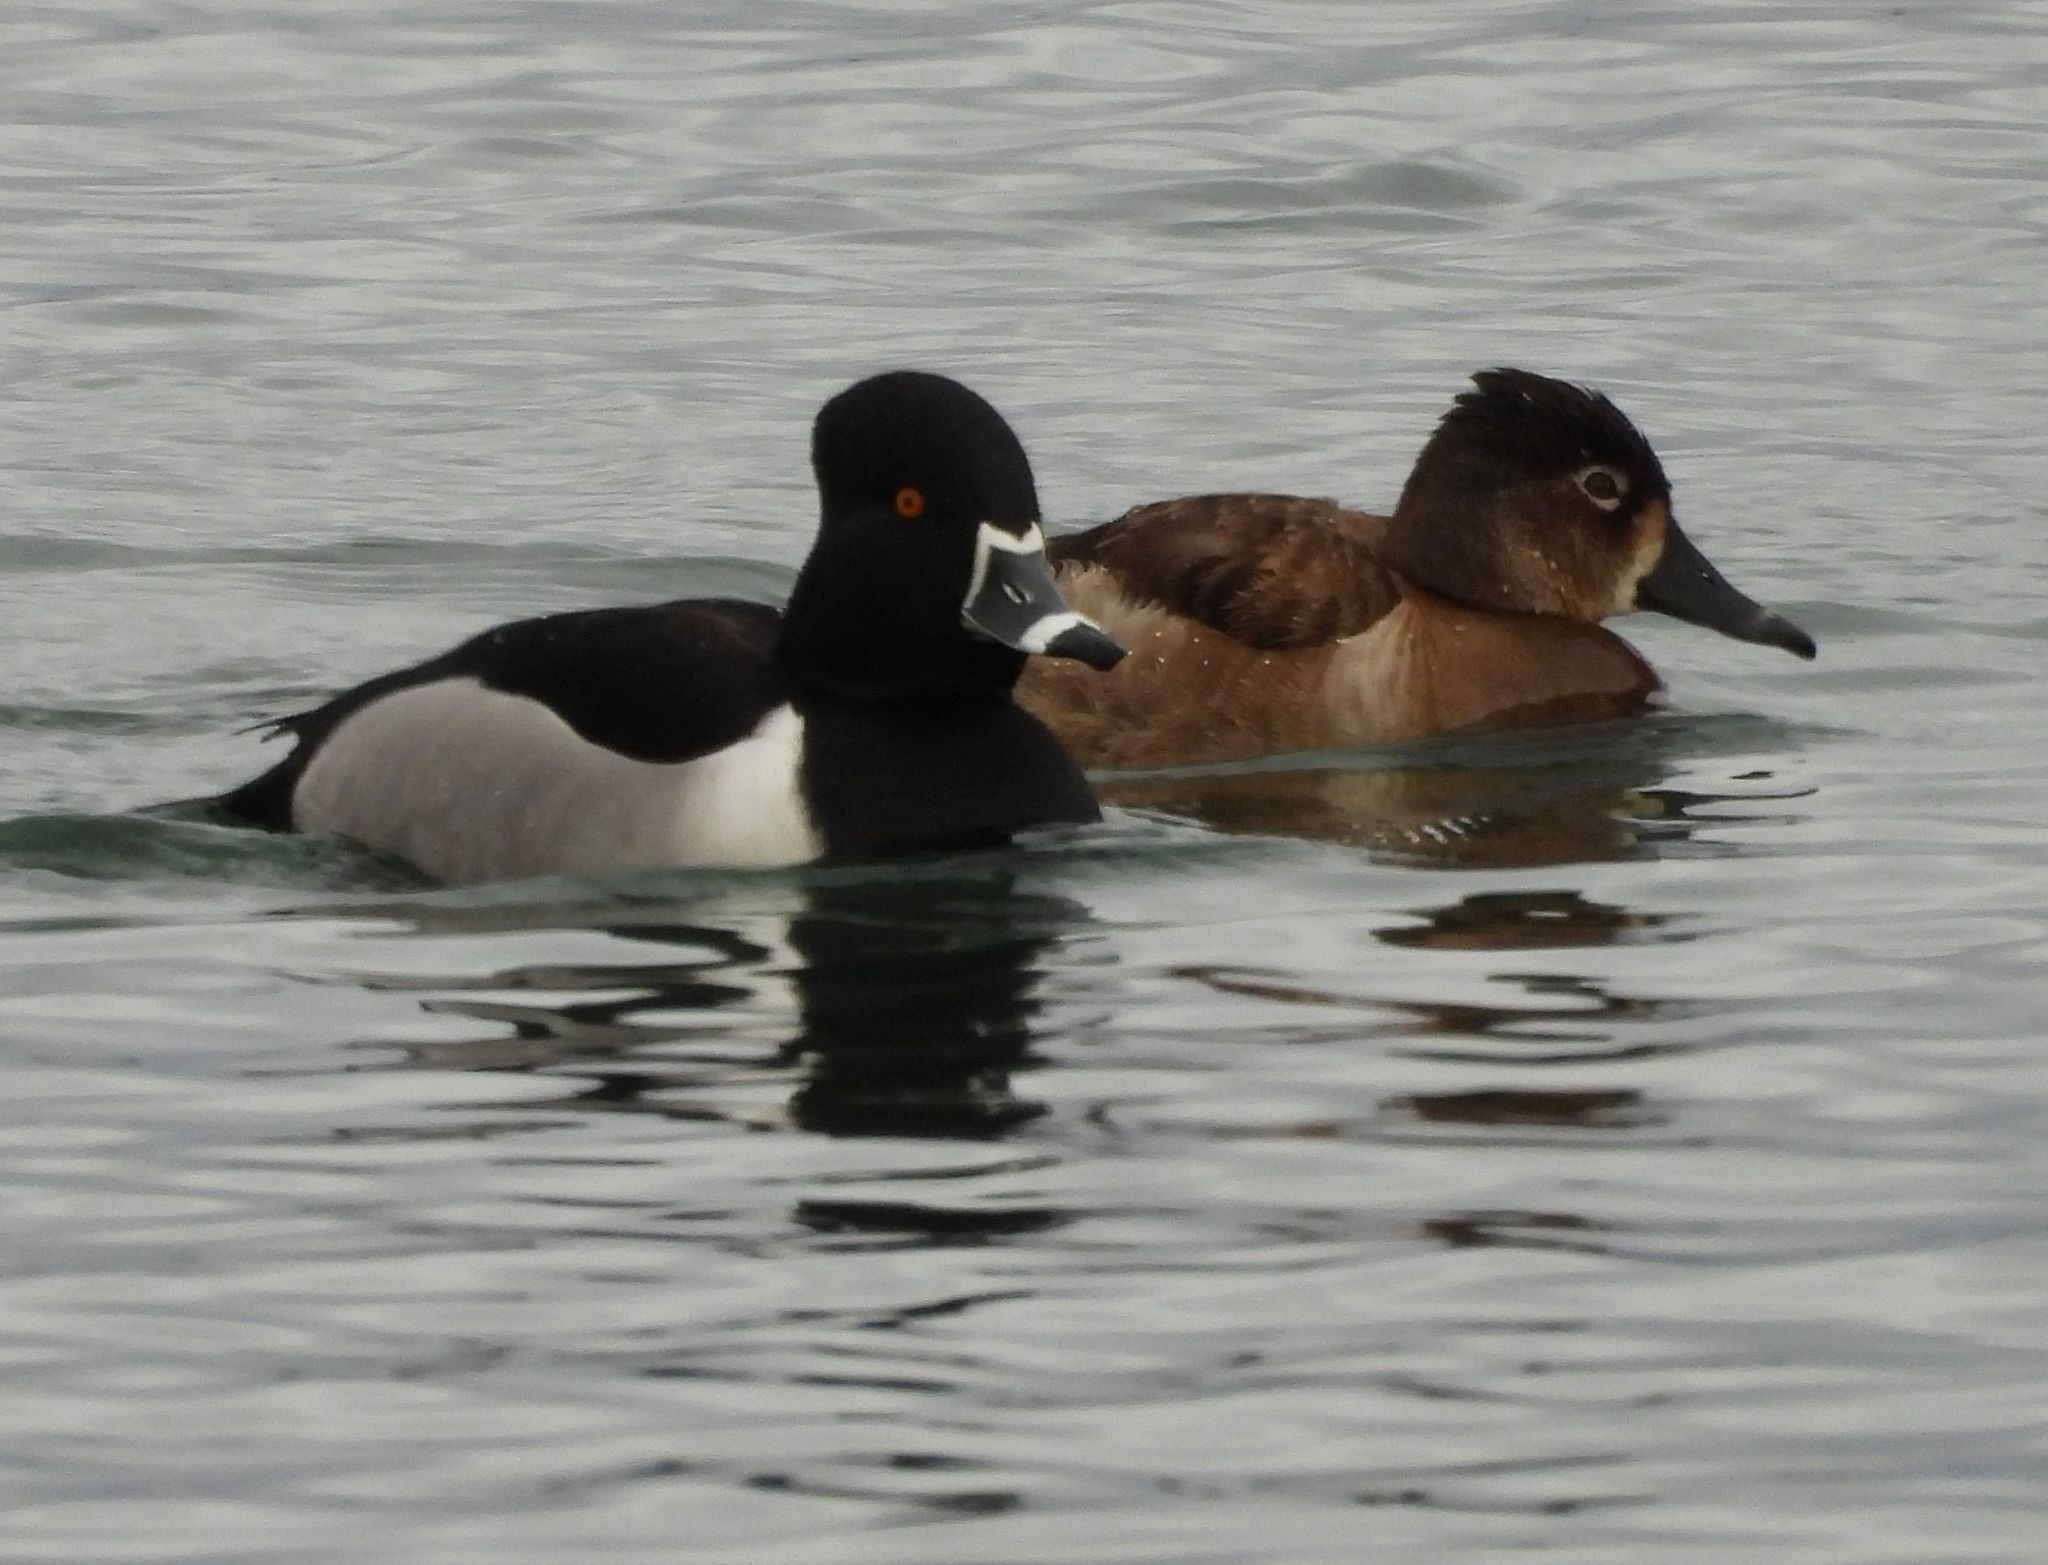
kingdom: Animalia
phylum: Chordata
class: Aves
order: Anseriformes
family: Anatidae
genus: Aythya
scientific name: Aythya collaris
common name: Ring-necked duck
